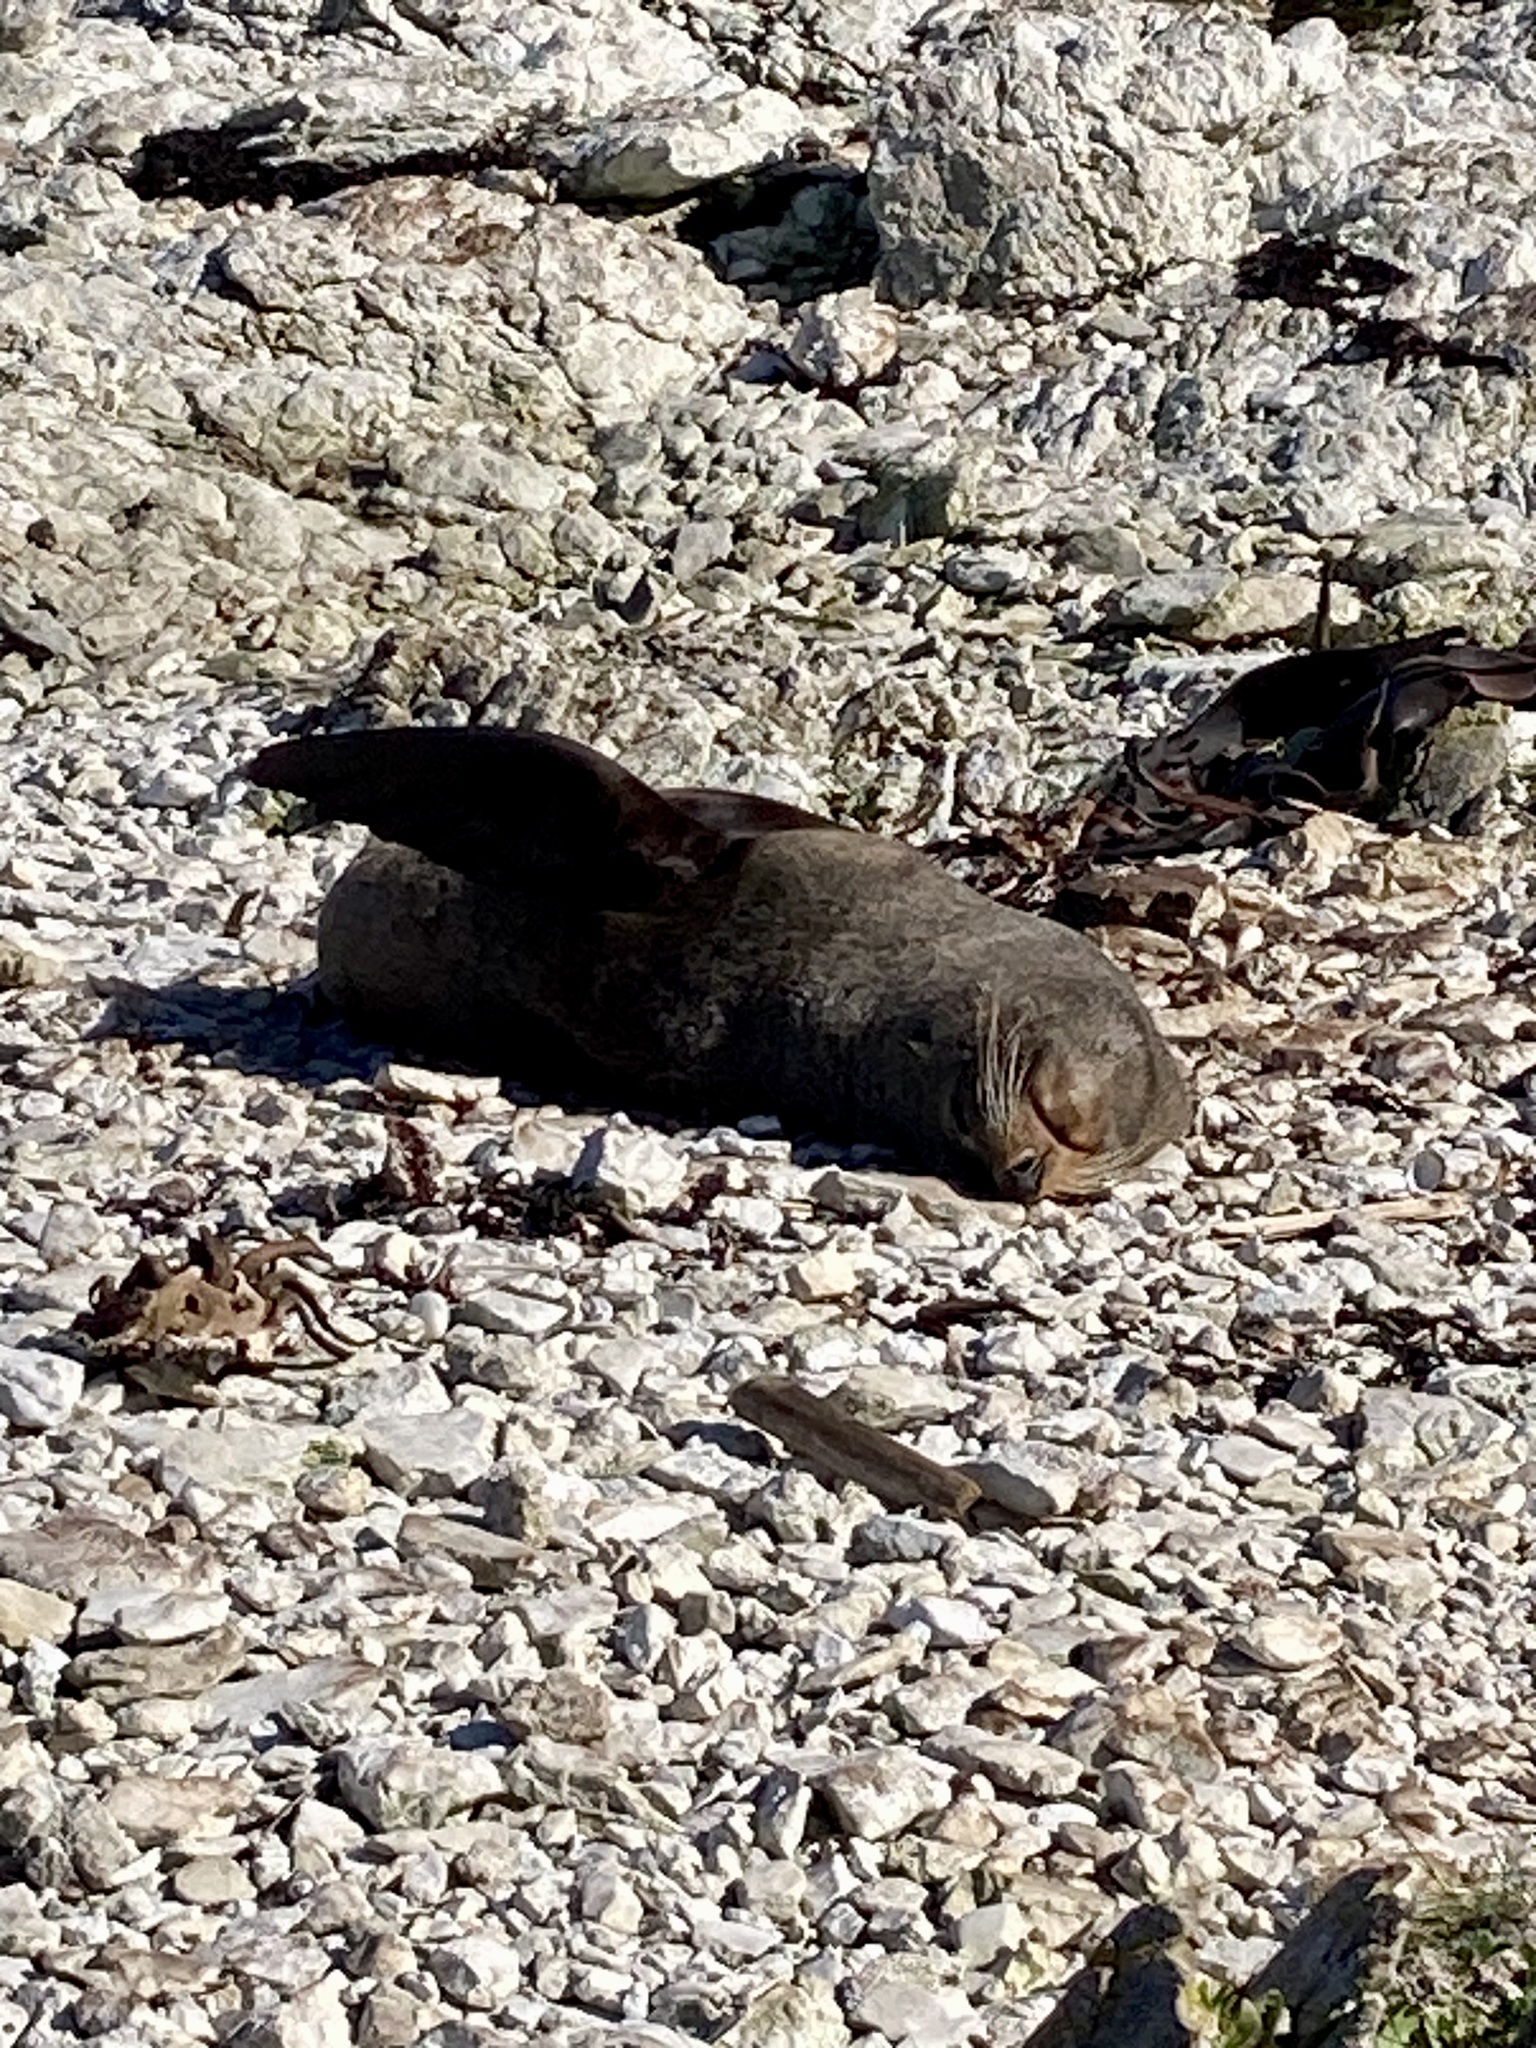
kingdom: Animalia
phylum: Chordata
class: Mammalia
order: Carnivora
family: Otariidae
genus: Arctocephalus
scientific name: Arctocephalus forsteri
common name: New zealand fur seal
